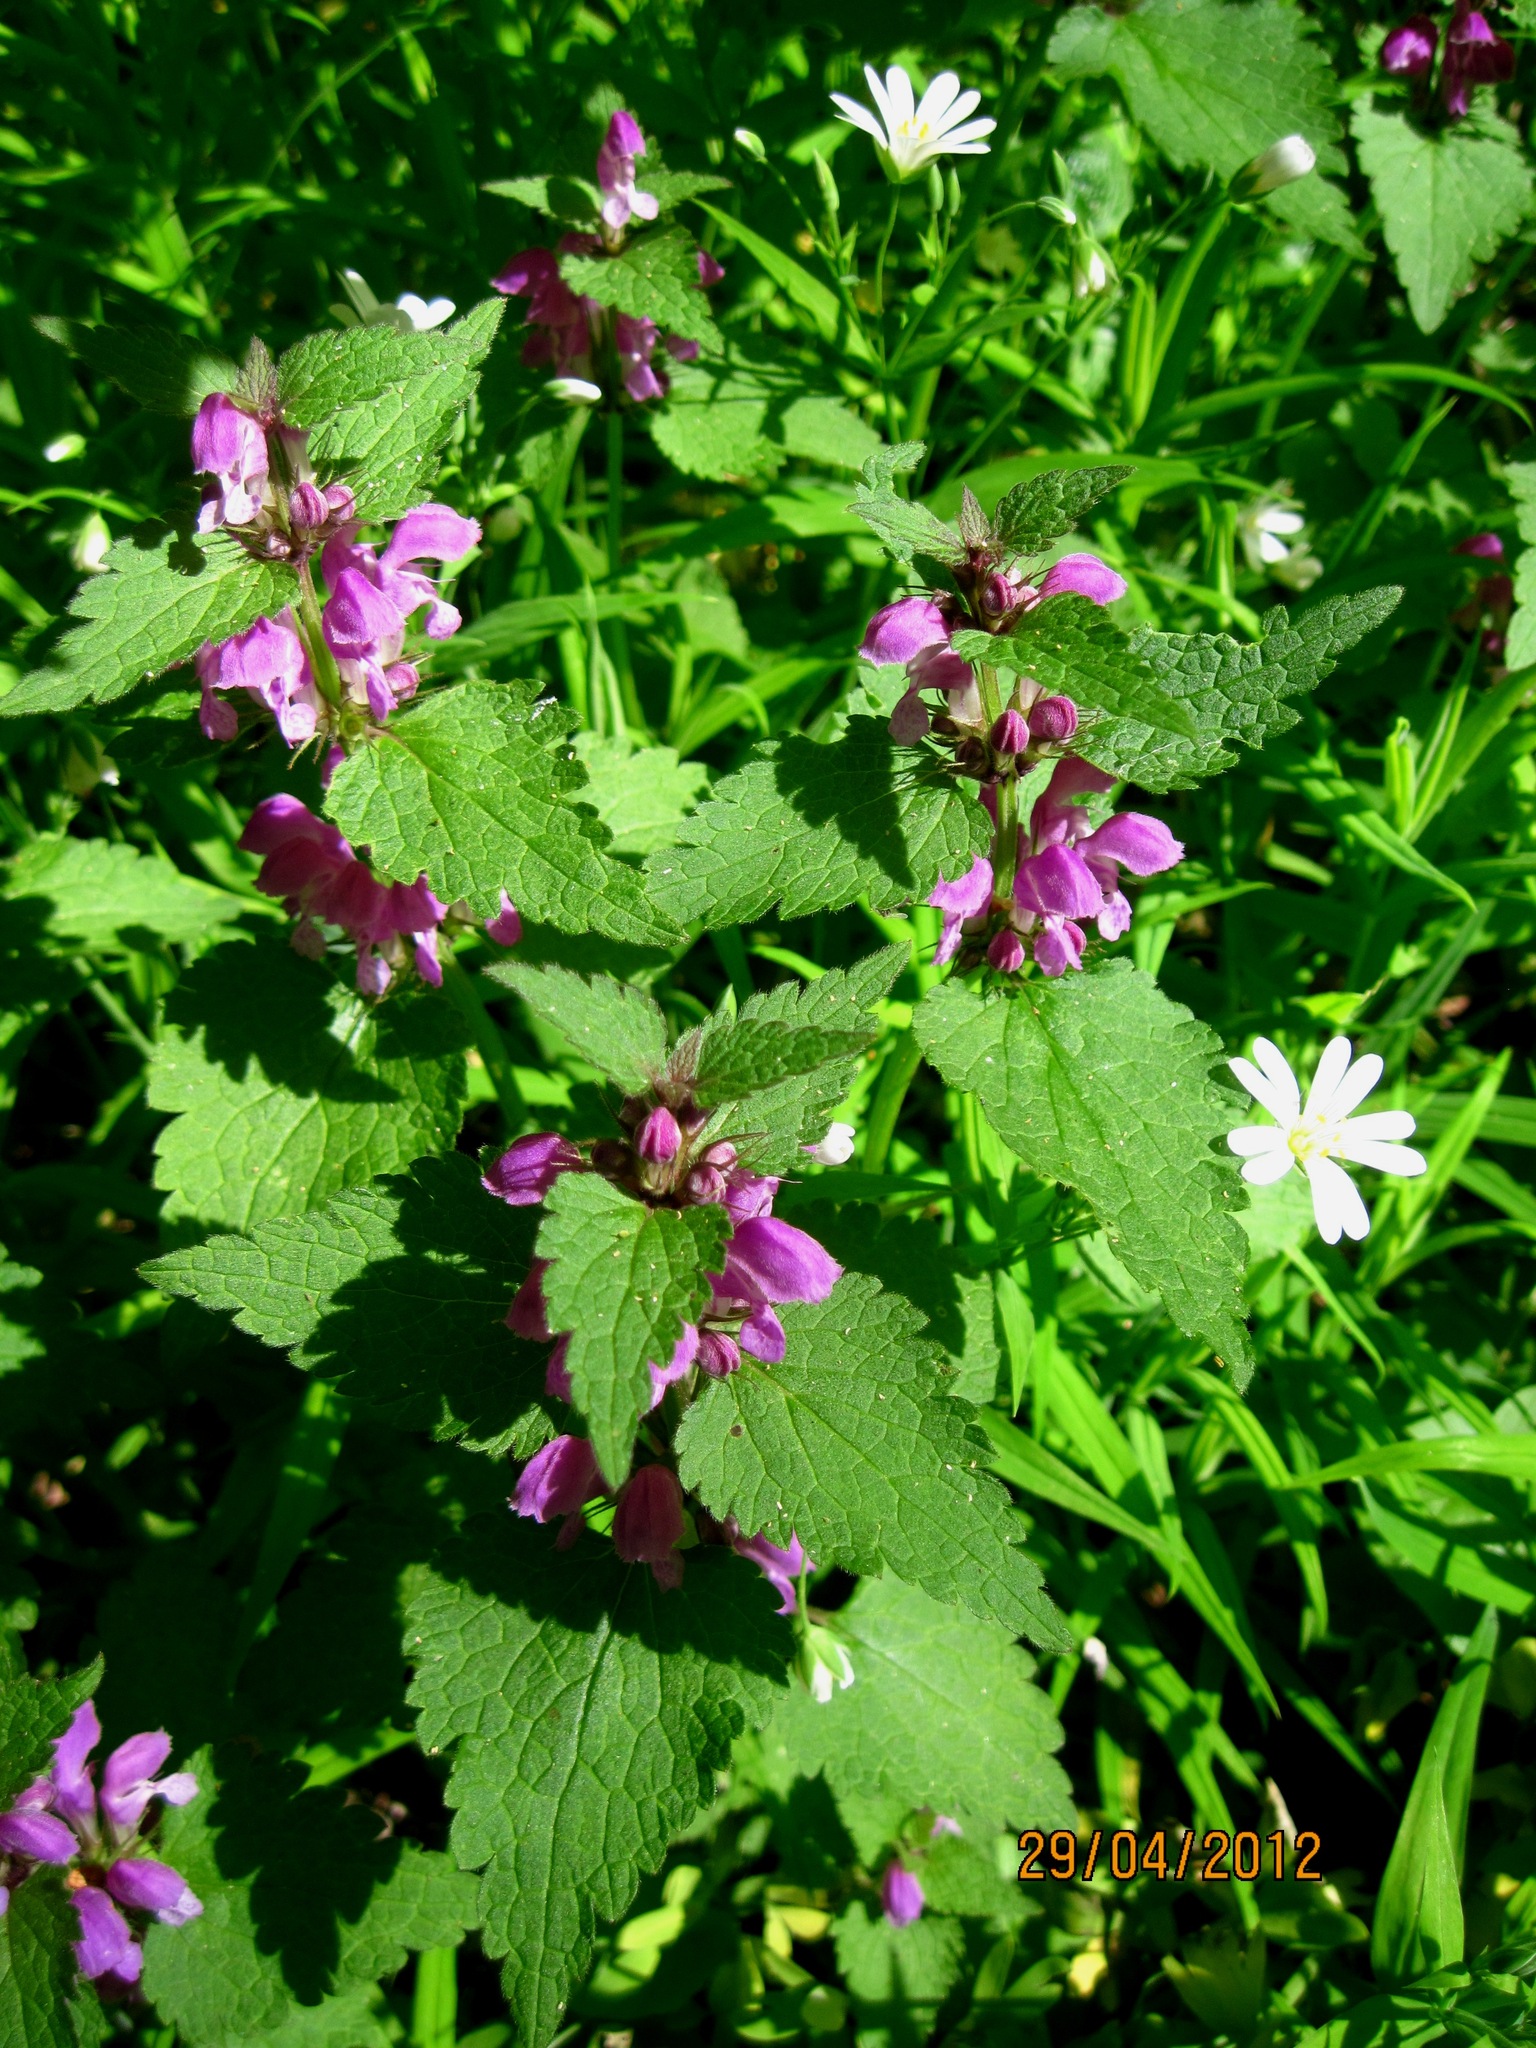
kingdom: Plantae
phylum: Tracheophyta
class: Magnoliopsida
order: Lamiales
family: Lamiaceae
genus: Lamium
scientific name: Lamium maculatum
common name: Spotted dead-nettle
